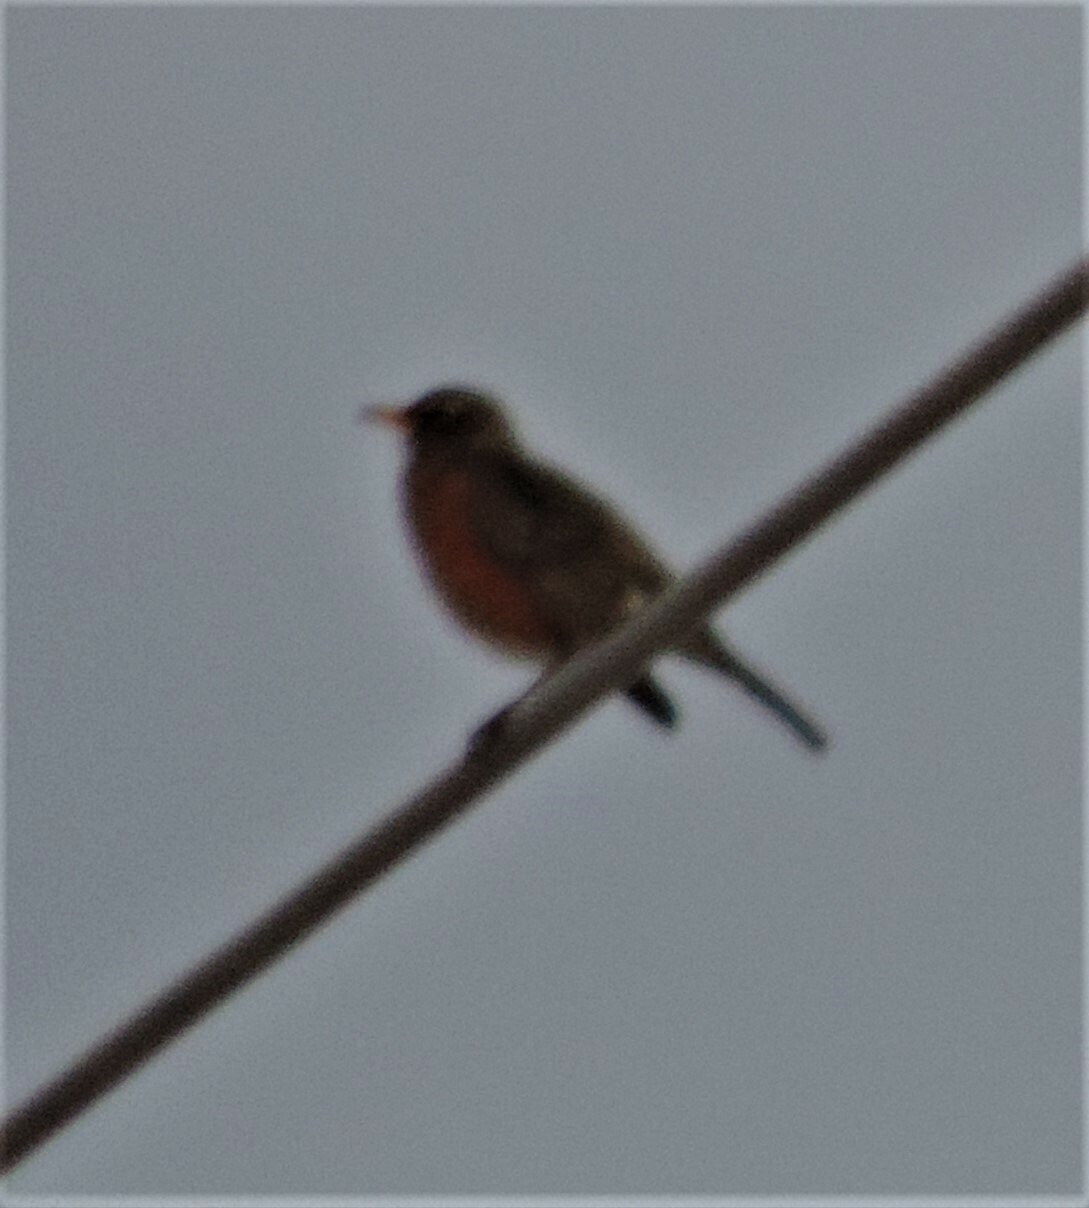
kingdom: Animalia
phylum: Chordata
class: Aves
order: Passeriformes
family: Turdidae
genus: Turdus
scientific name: Turdus migratorius
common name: American robin
